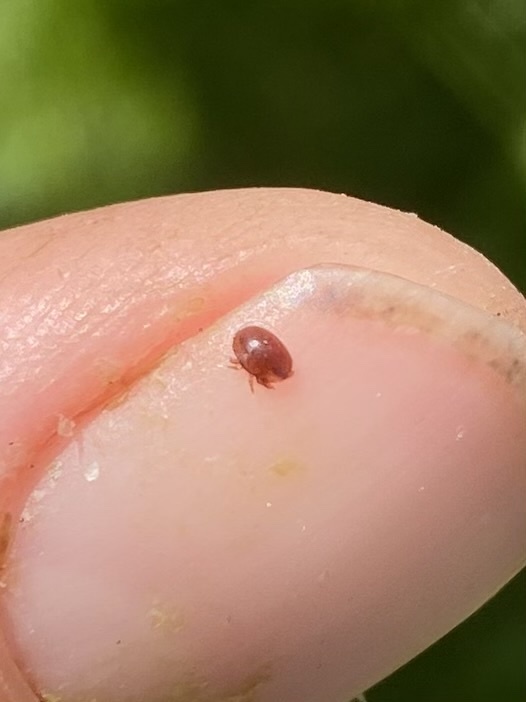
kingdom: Animalia
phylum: Arthropoda
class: Arachnida
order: Mesostigmata
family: Varroidae
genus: Varroa
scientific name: Varroa destructor
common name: Honey bee mite
